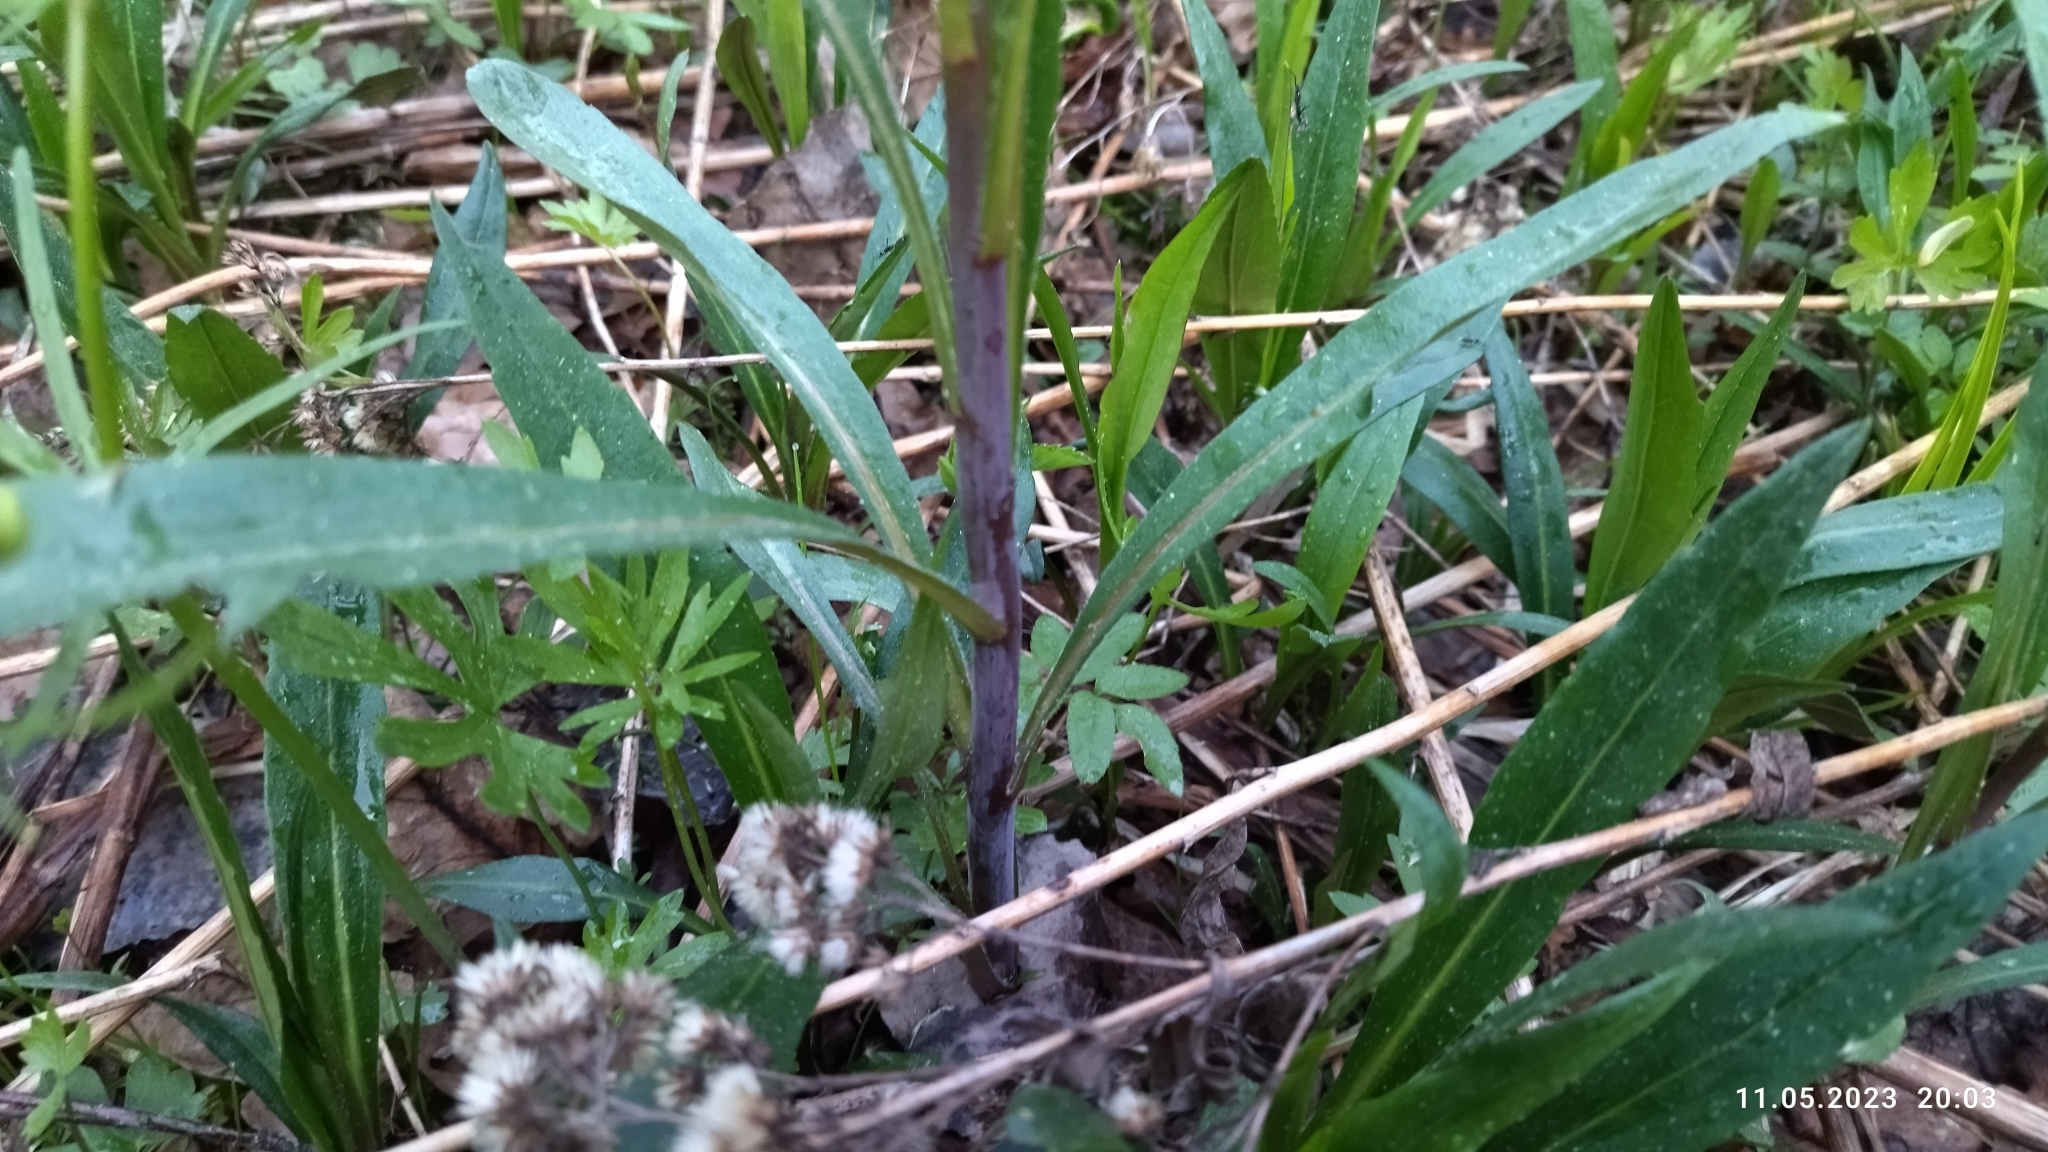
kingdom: Plantae
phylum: Tracheophyta
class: Magnoliopsida
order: Asterales
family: Asteraceae
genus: Solidago
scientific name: Solidago gigantea
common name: Giant goldenrod
